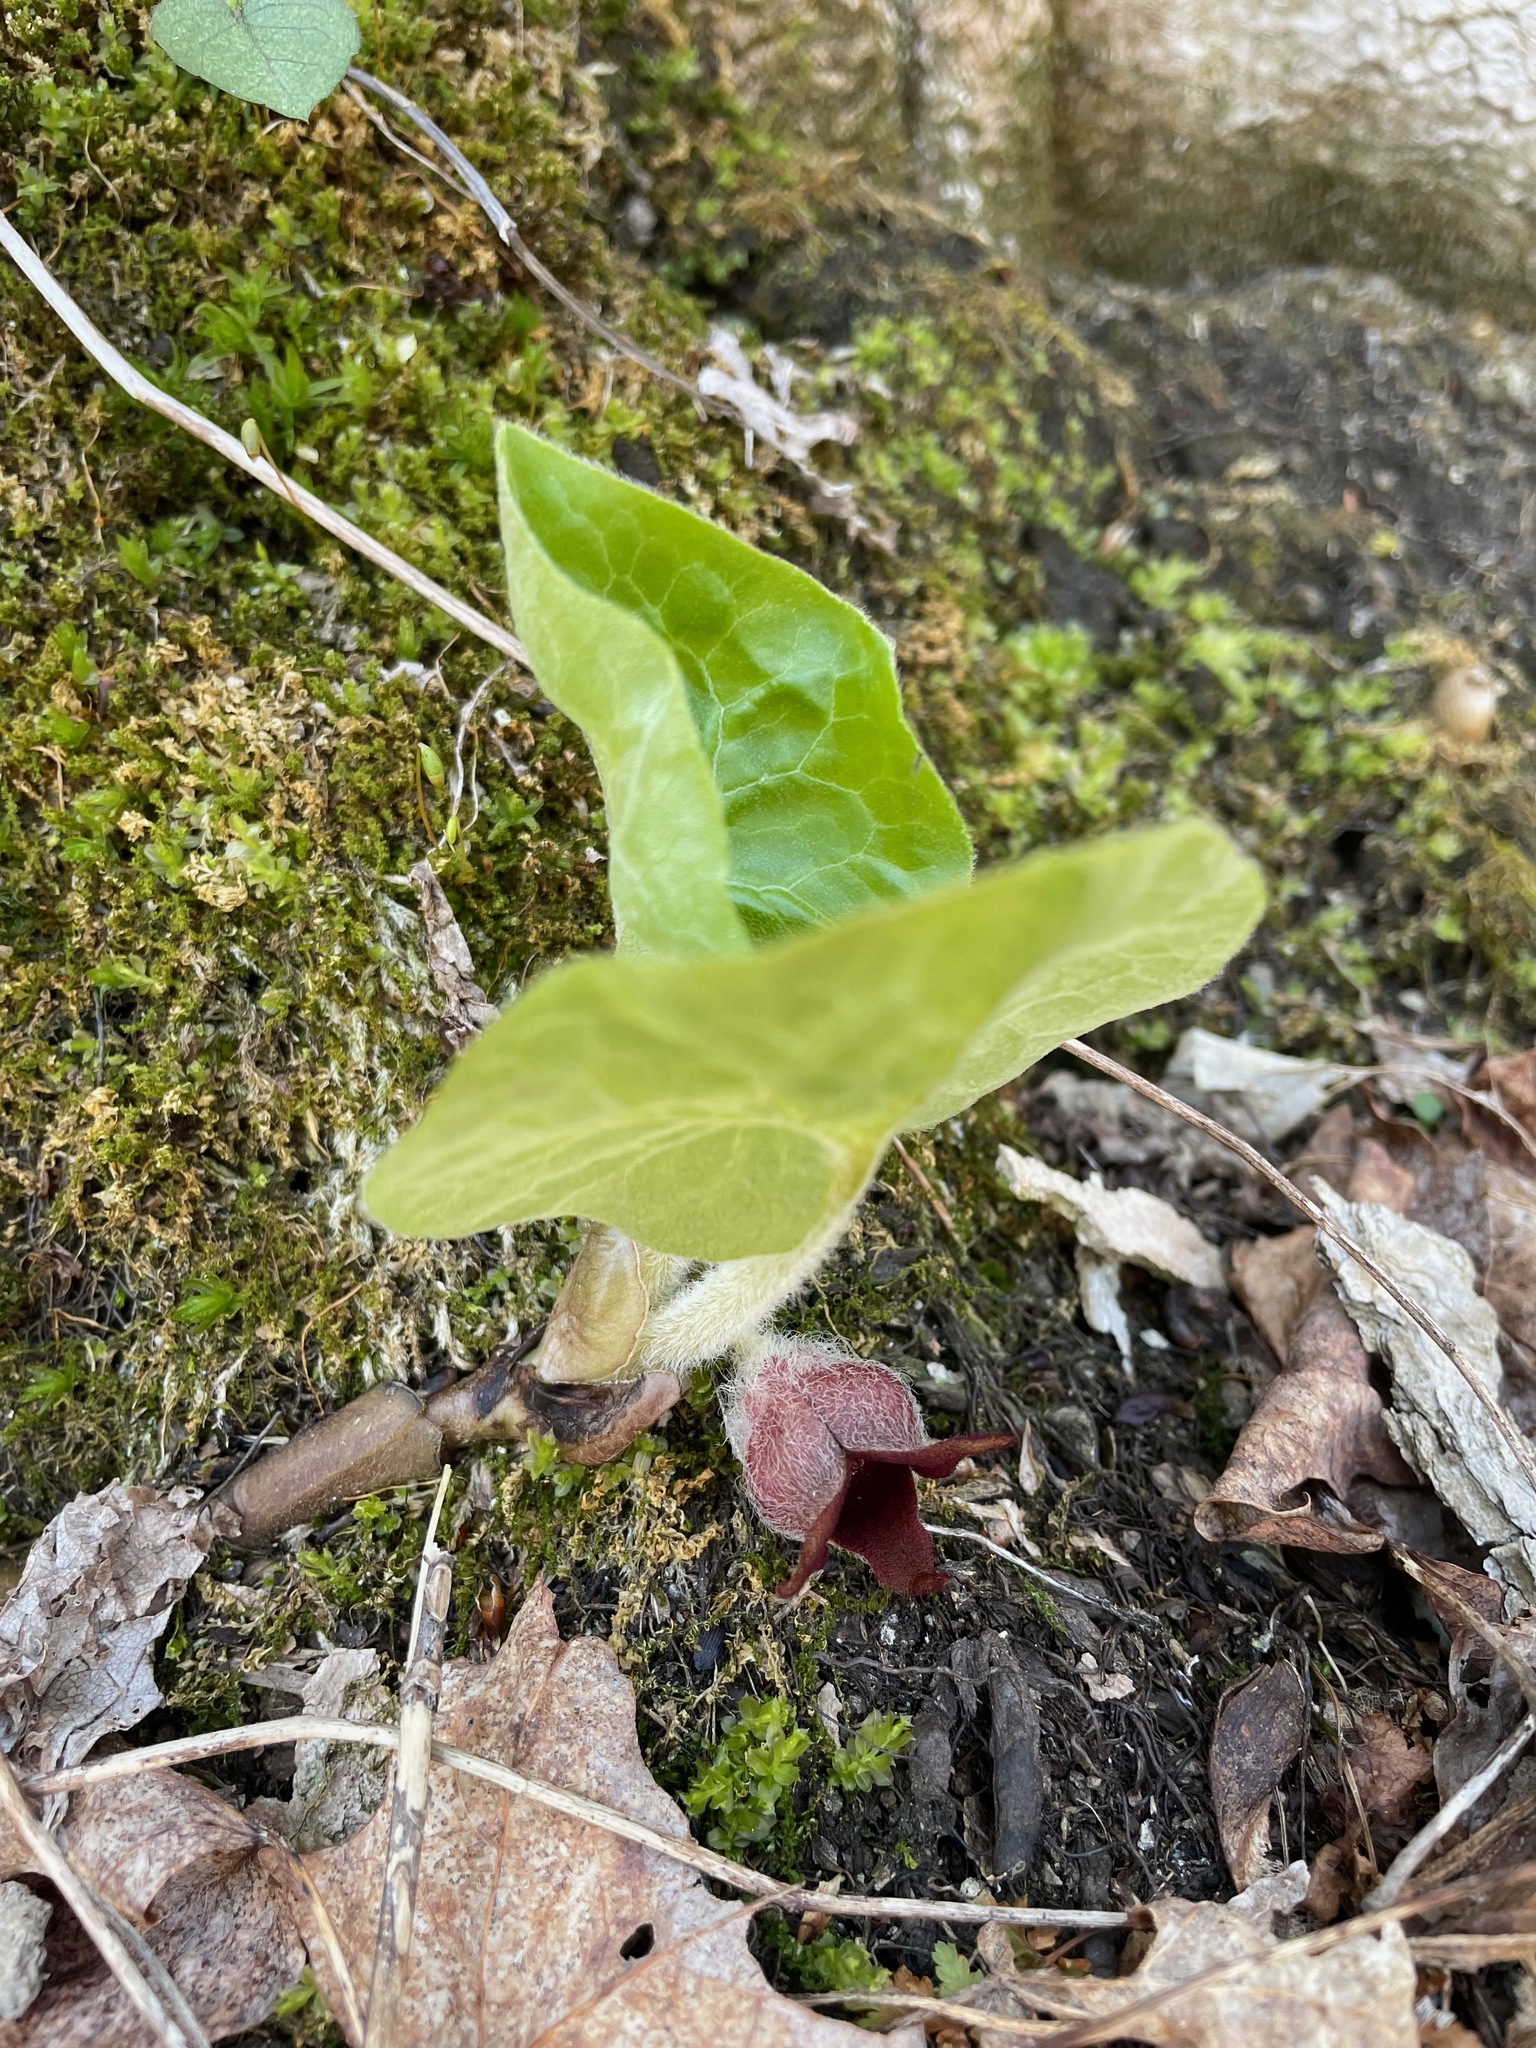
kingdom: Plantae
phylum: Tracheophyta
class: Magnoliopsida
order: Piperales
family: Aristolochiaceae
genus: Asarum
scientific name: Asarum canadense
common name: Wild ginger
